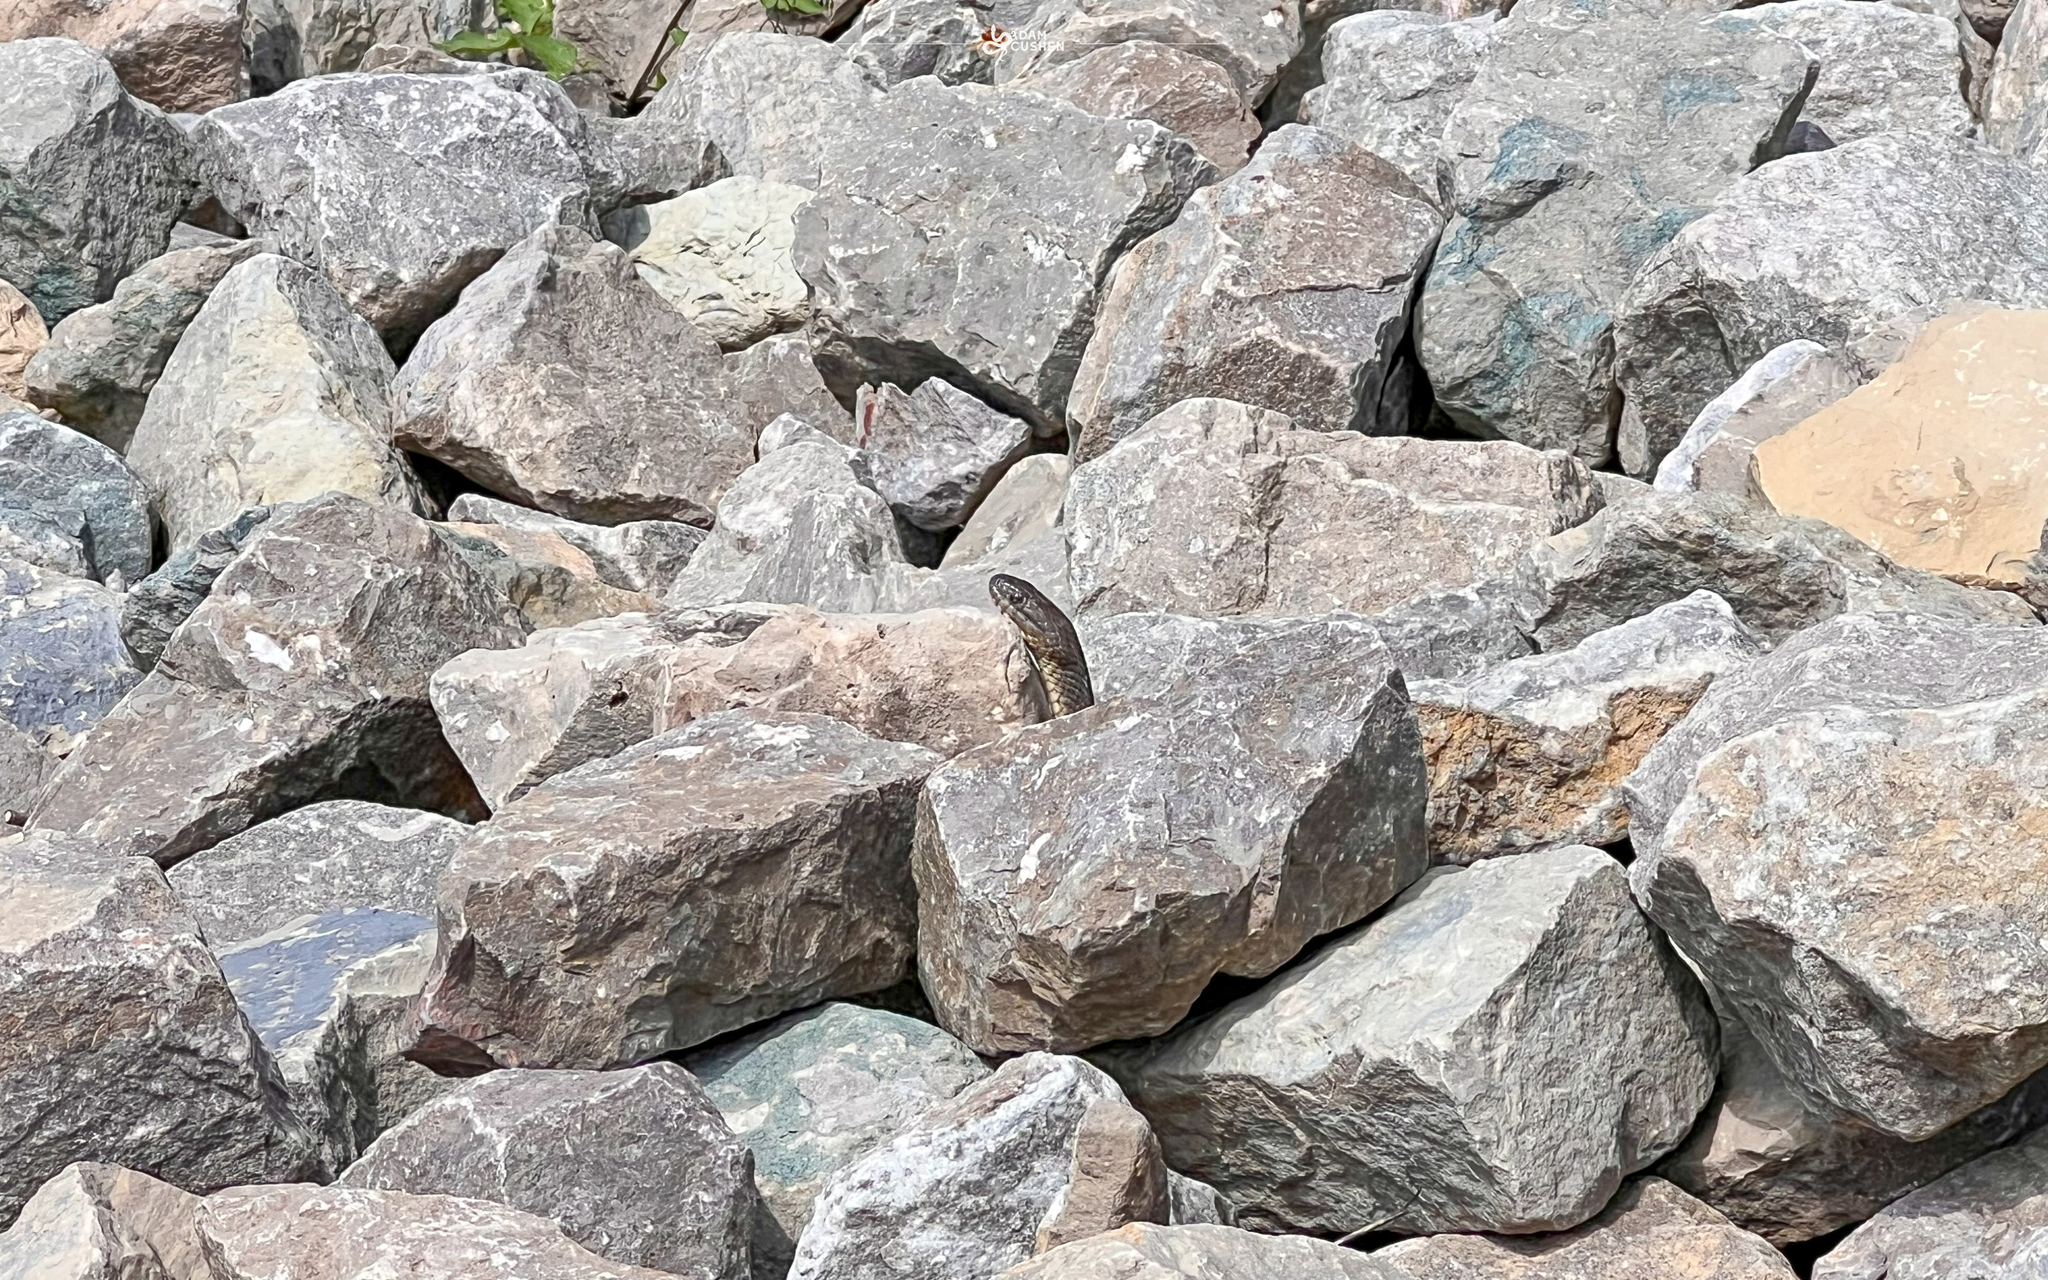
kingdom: Animalia
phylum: Chordata
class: Squamata
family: Colubridae
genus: Nerodia
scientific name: Nerodia sipedon
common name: Northern water snake
